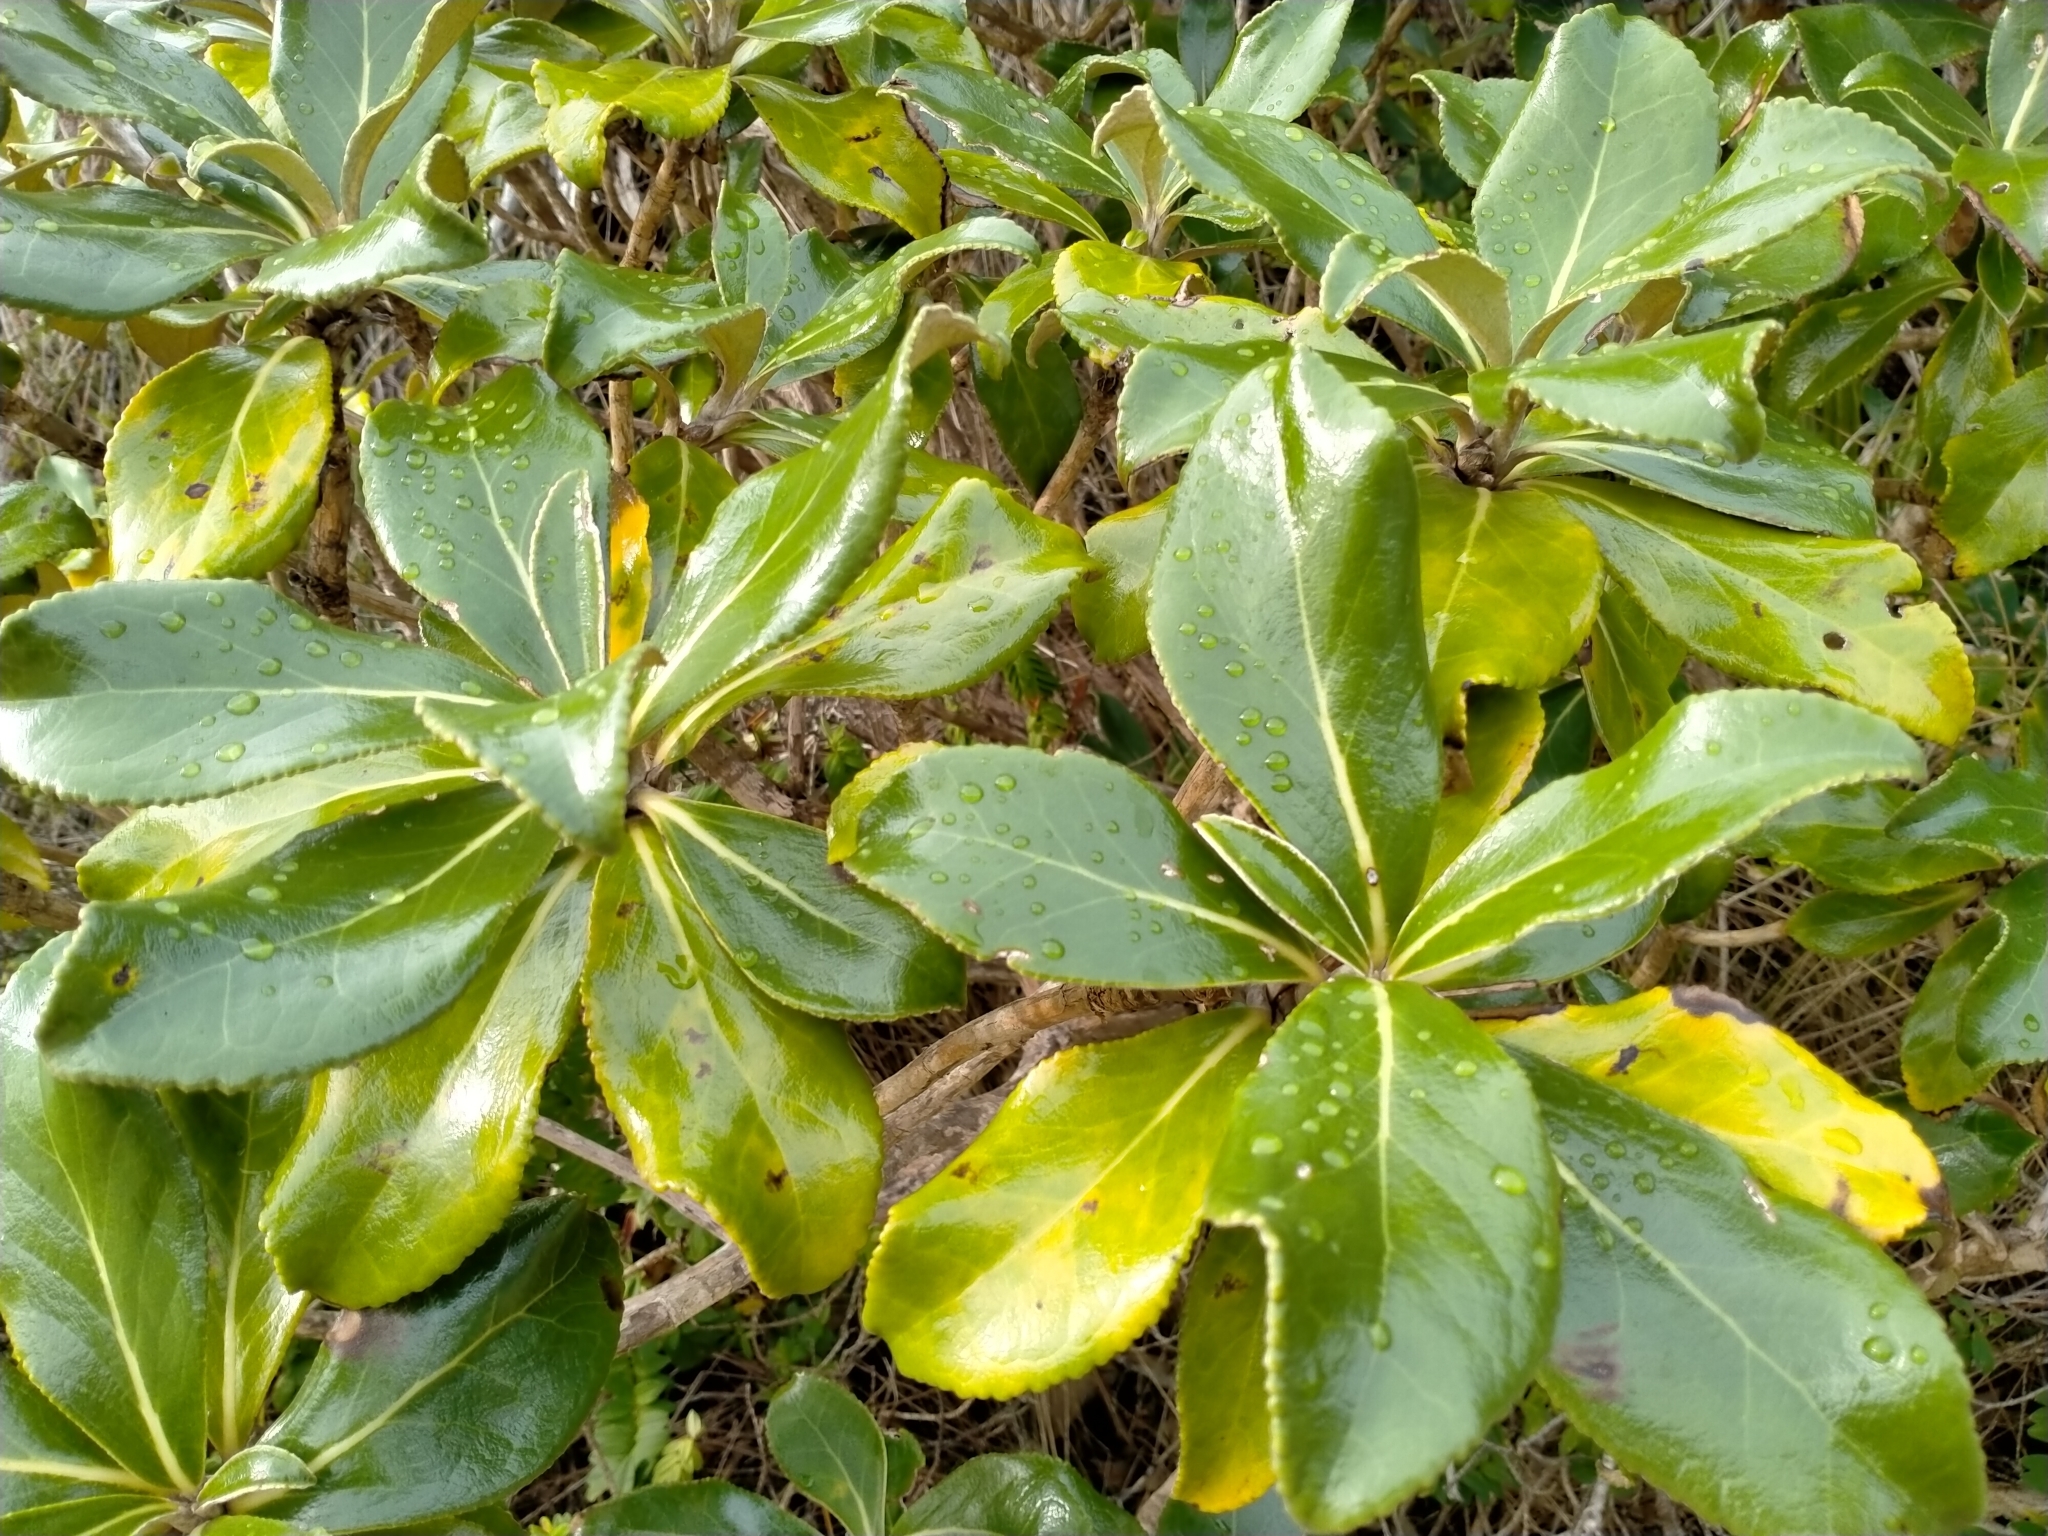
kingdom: Plantae
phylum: Tracheophyta
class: Magnoliopsida
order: Asterales
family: Asteraceae
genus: Macrolearia
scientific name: Macrolearia colensoi
